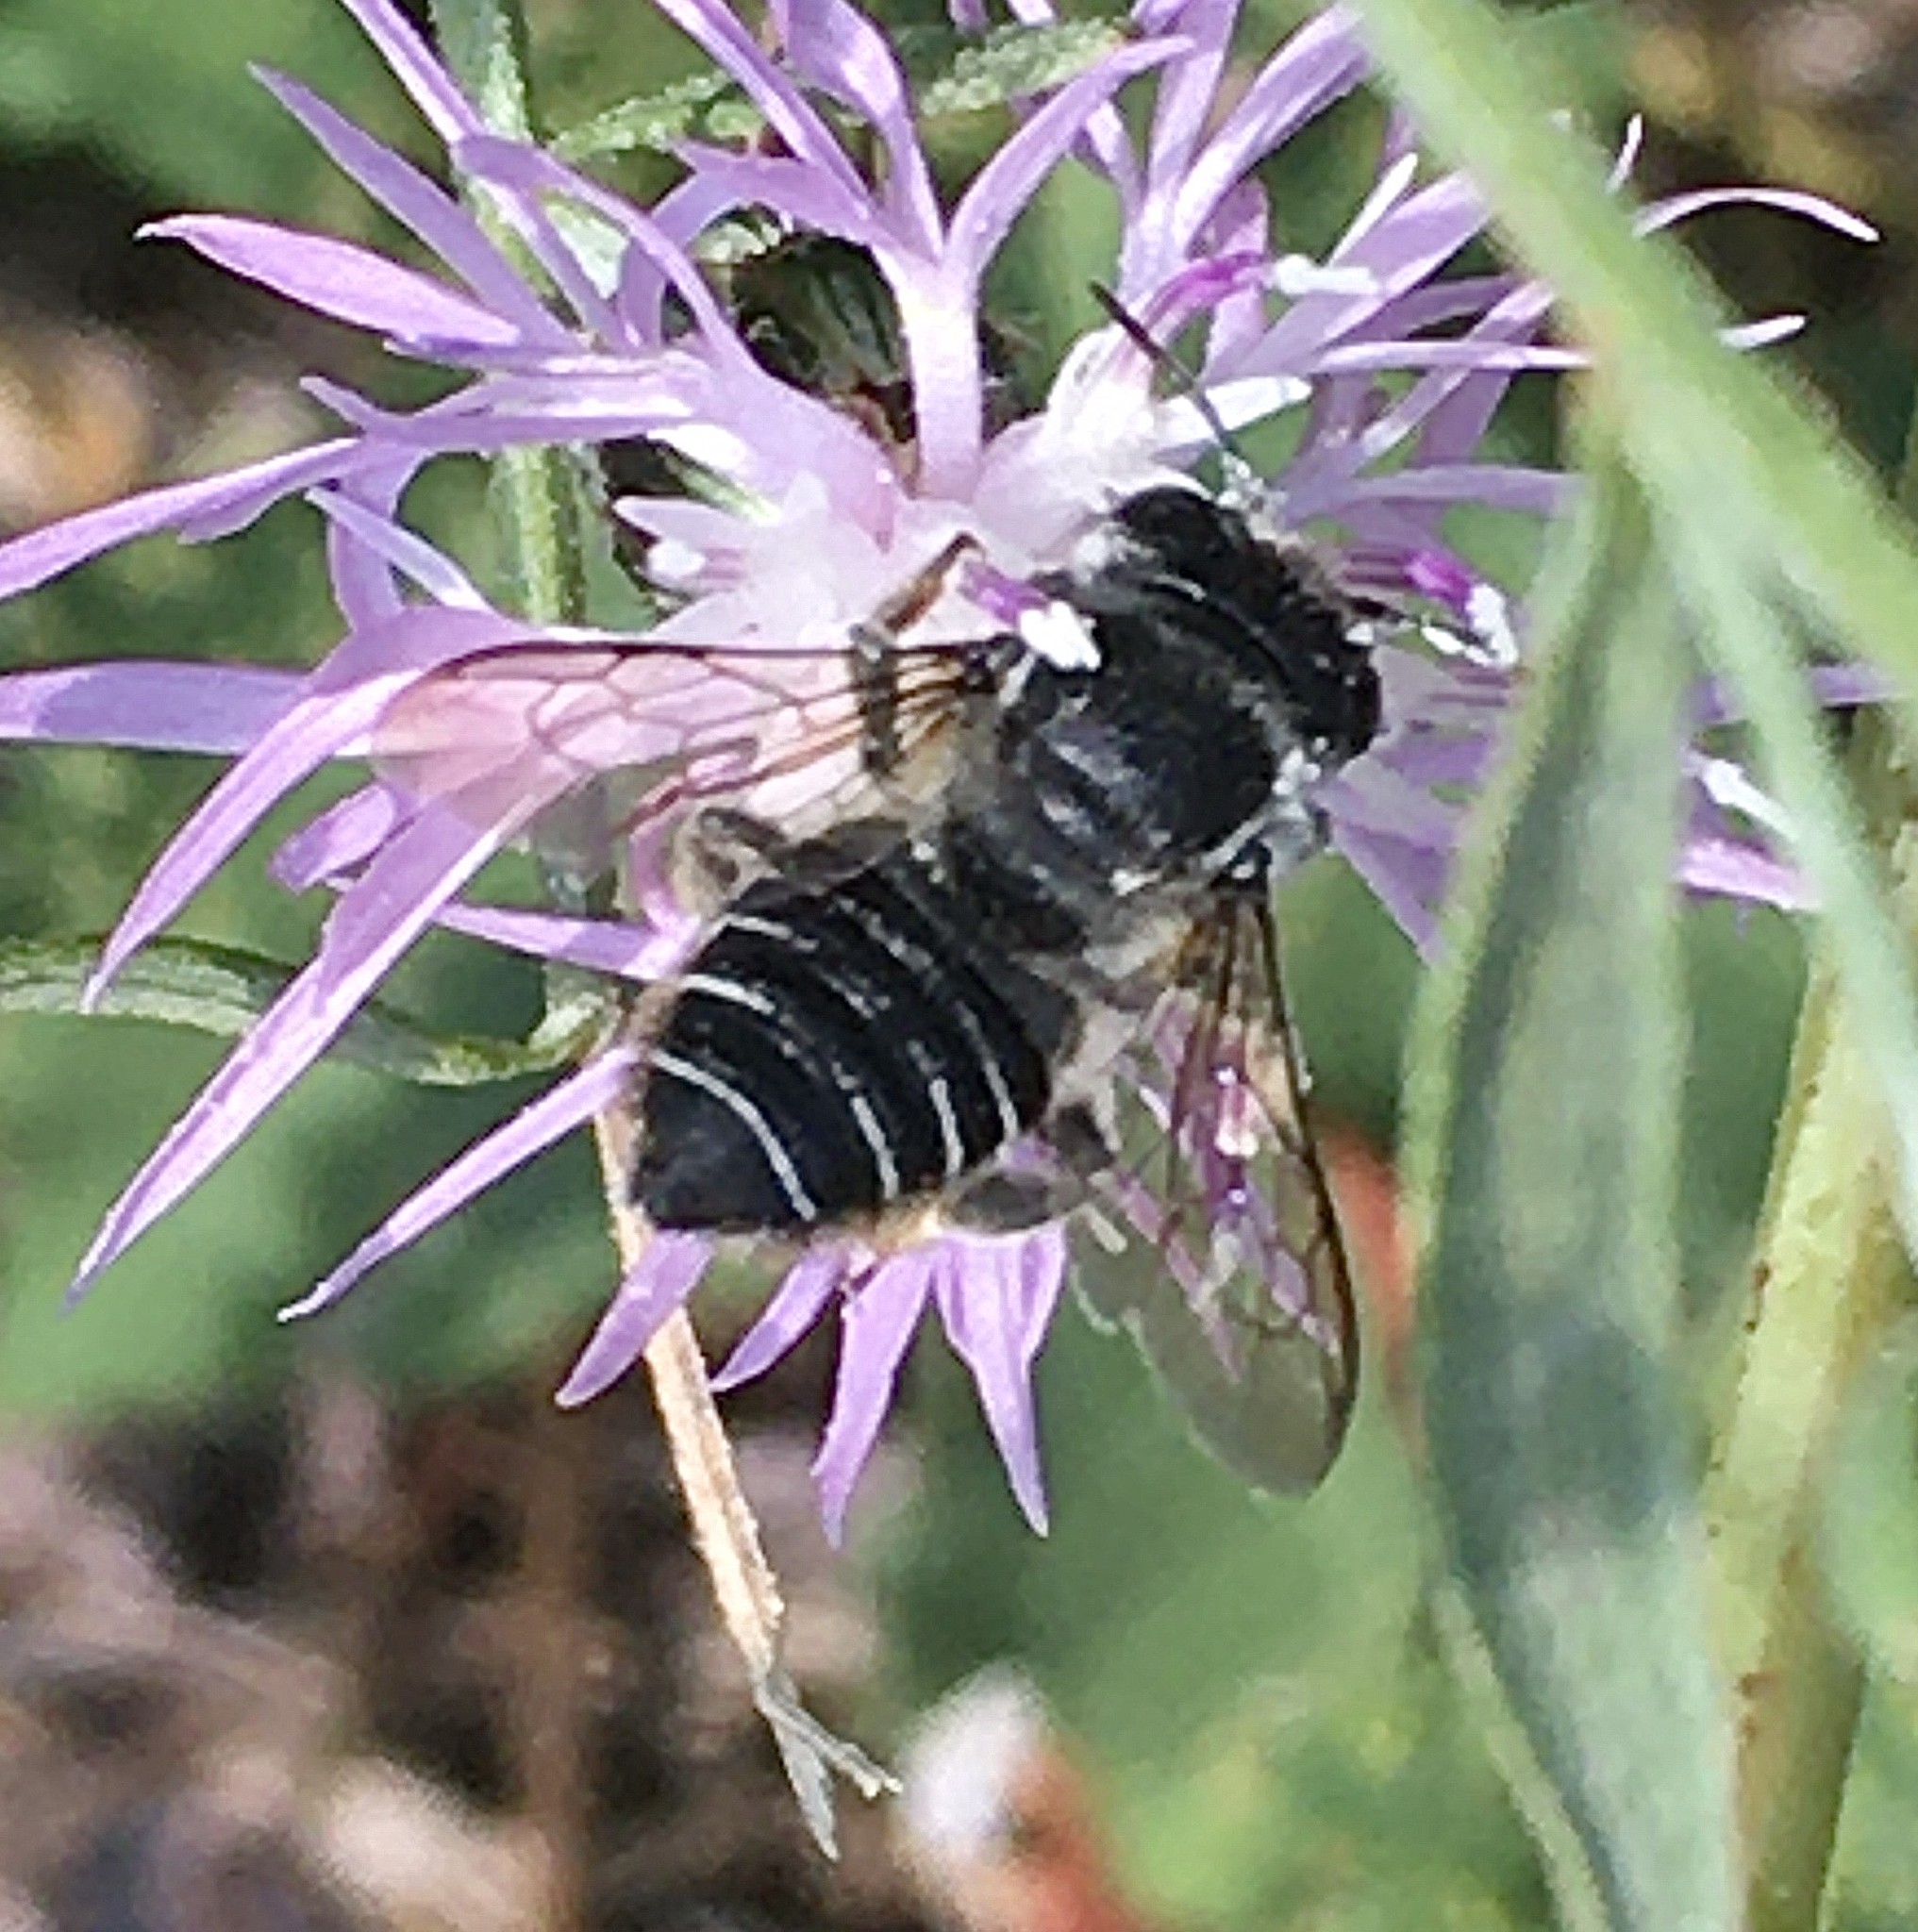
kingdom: Animalia
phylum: Arthropoda
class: Insecta
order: Hymenoptera
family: Megachilidae
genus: Megachile
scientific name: Megachile
